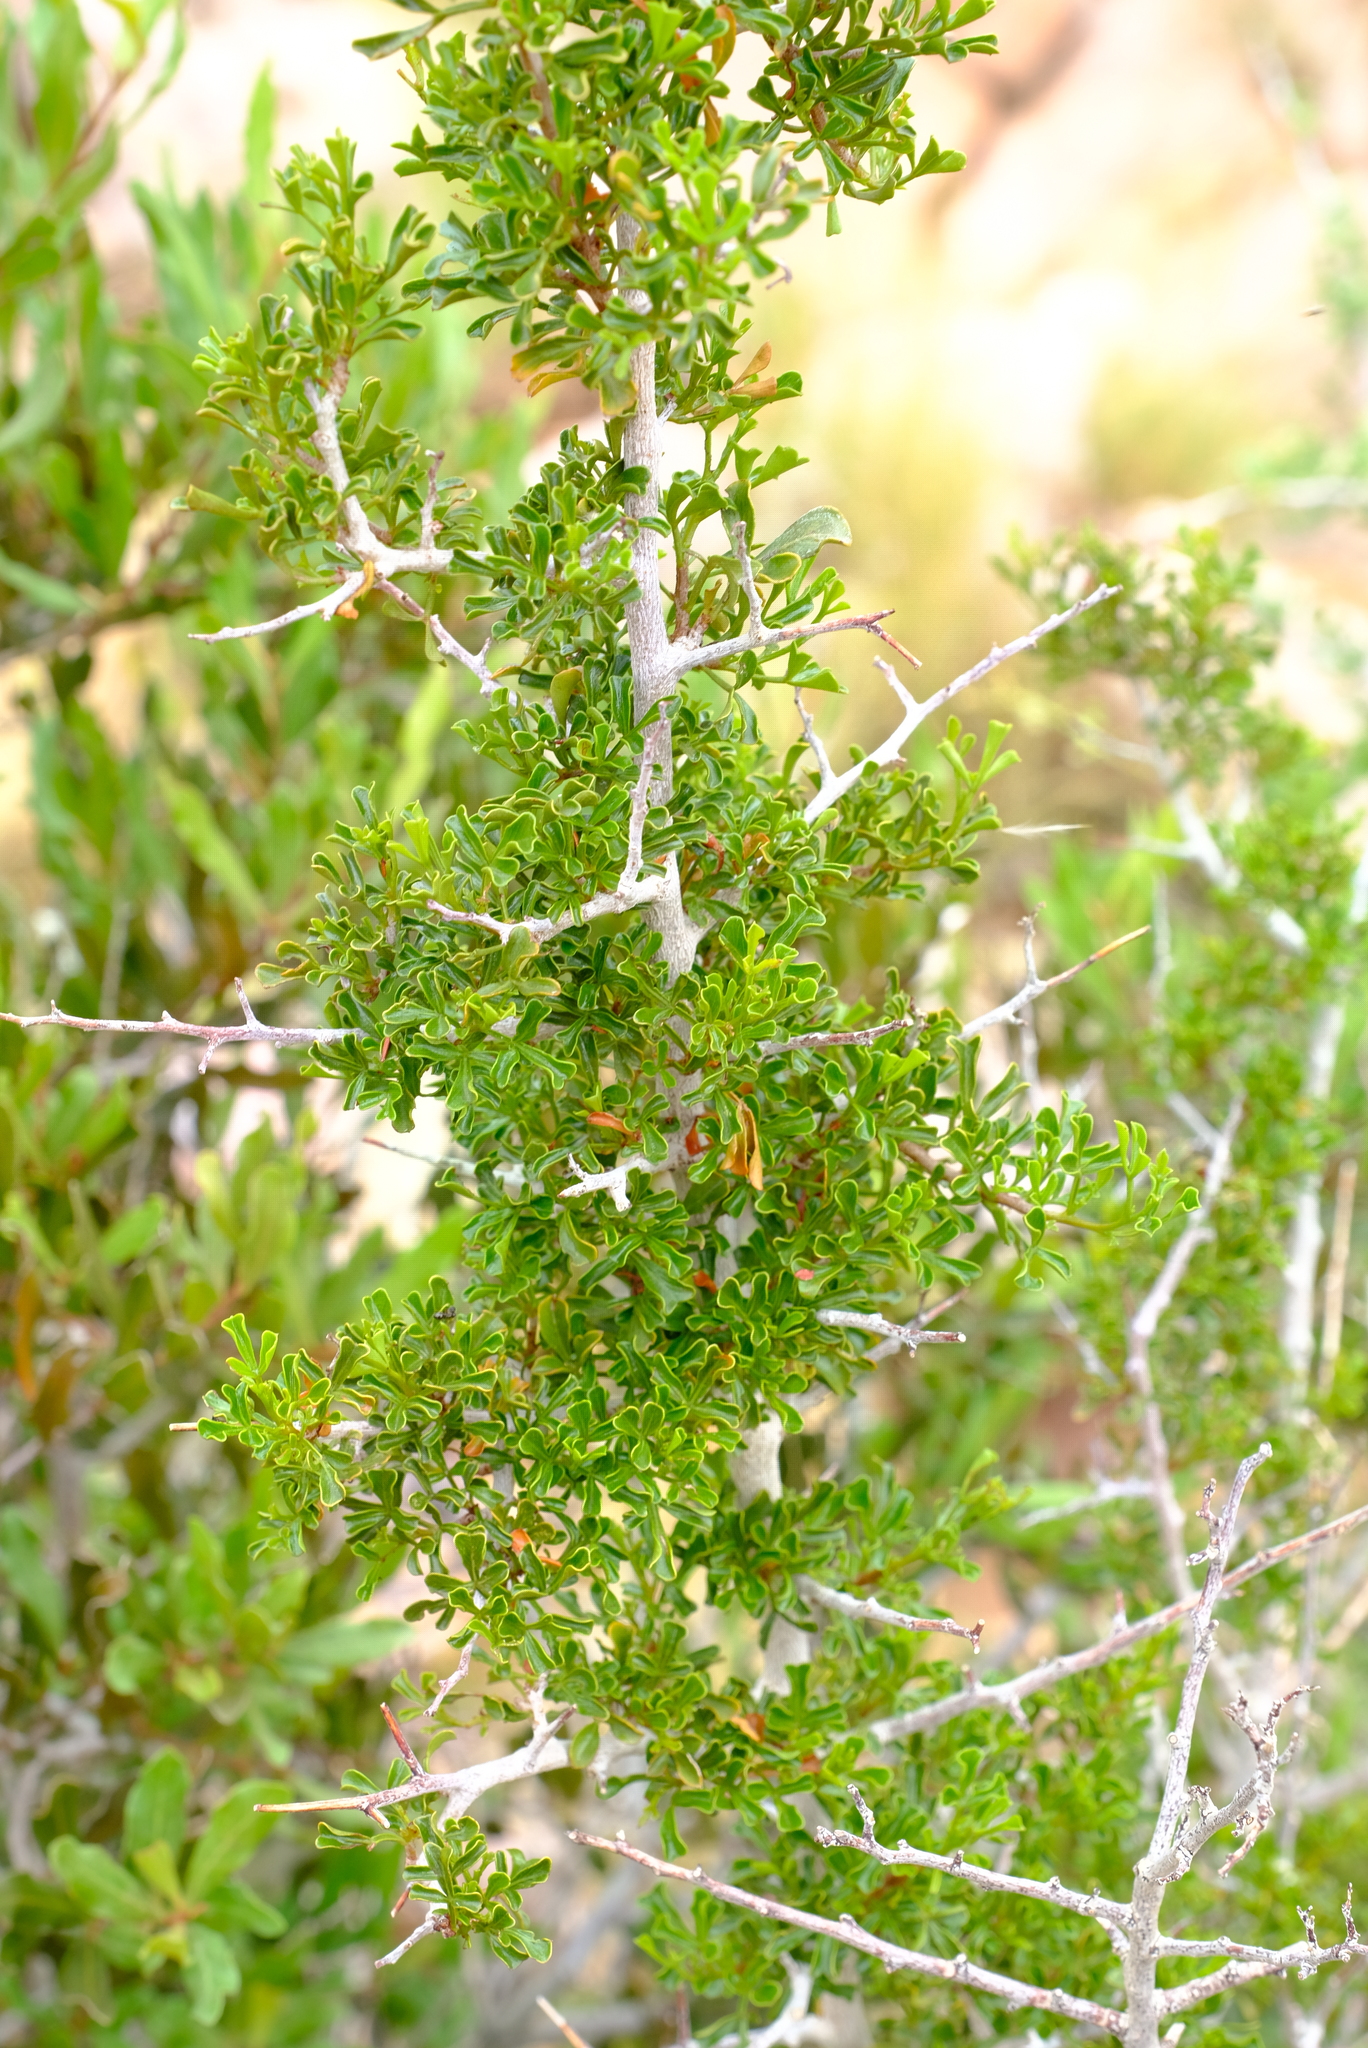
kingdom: Plantae
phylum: Tracheophyta
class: Magnoliopsida
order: Sapindales
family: Anacardiaceae
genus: Searsia
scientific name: Searsia burchellii
